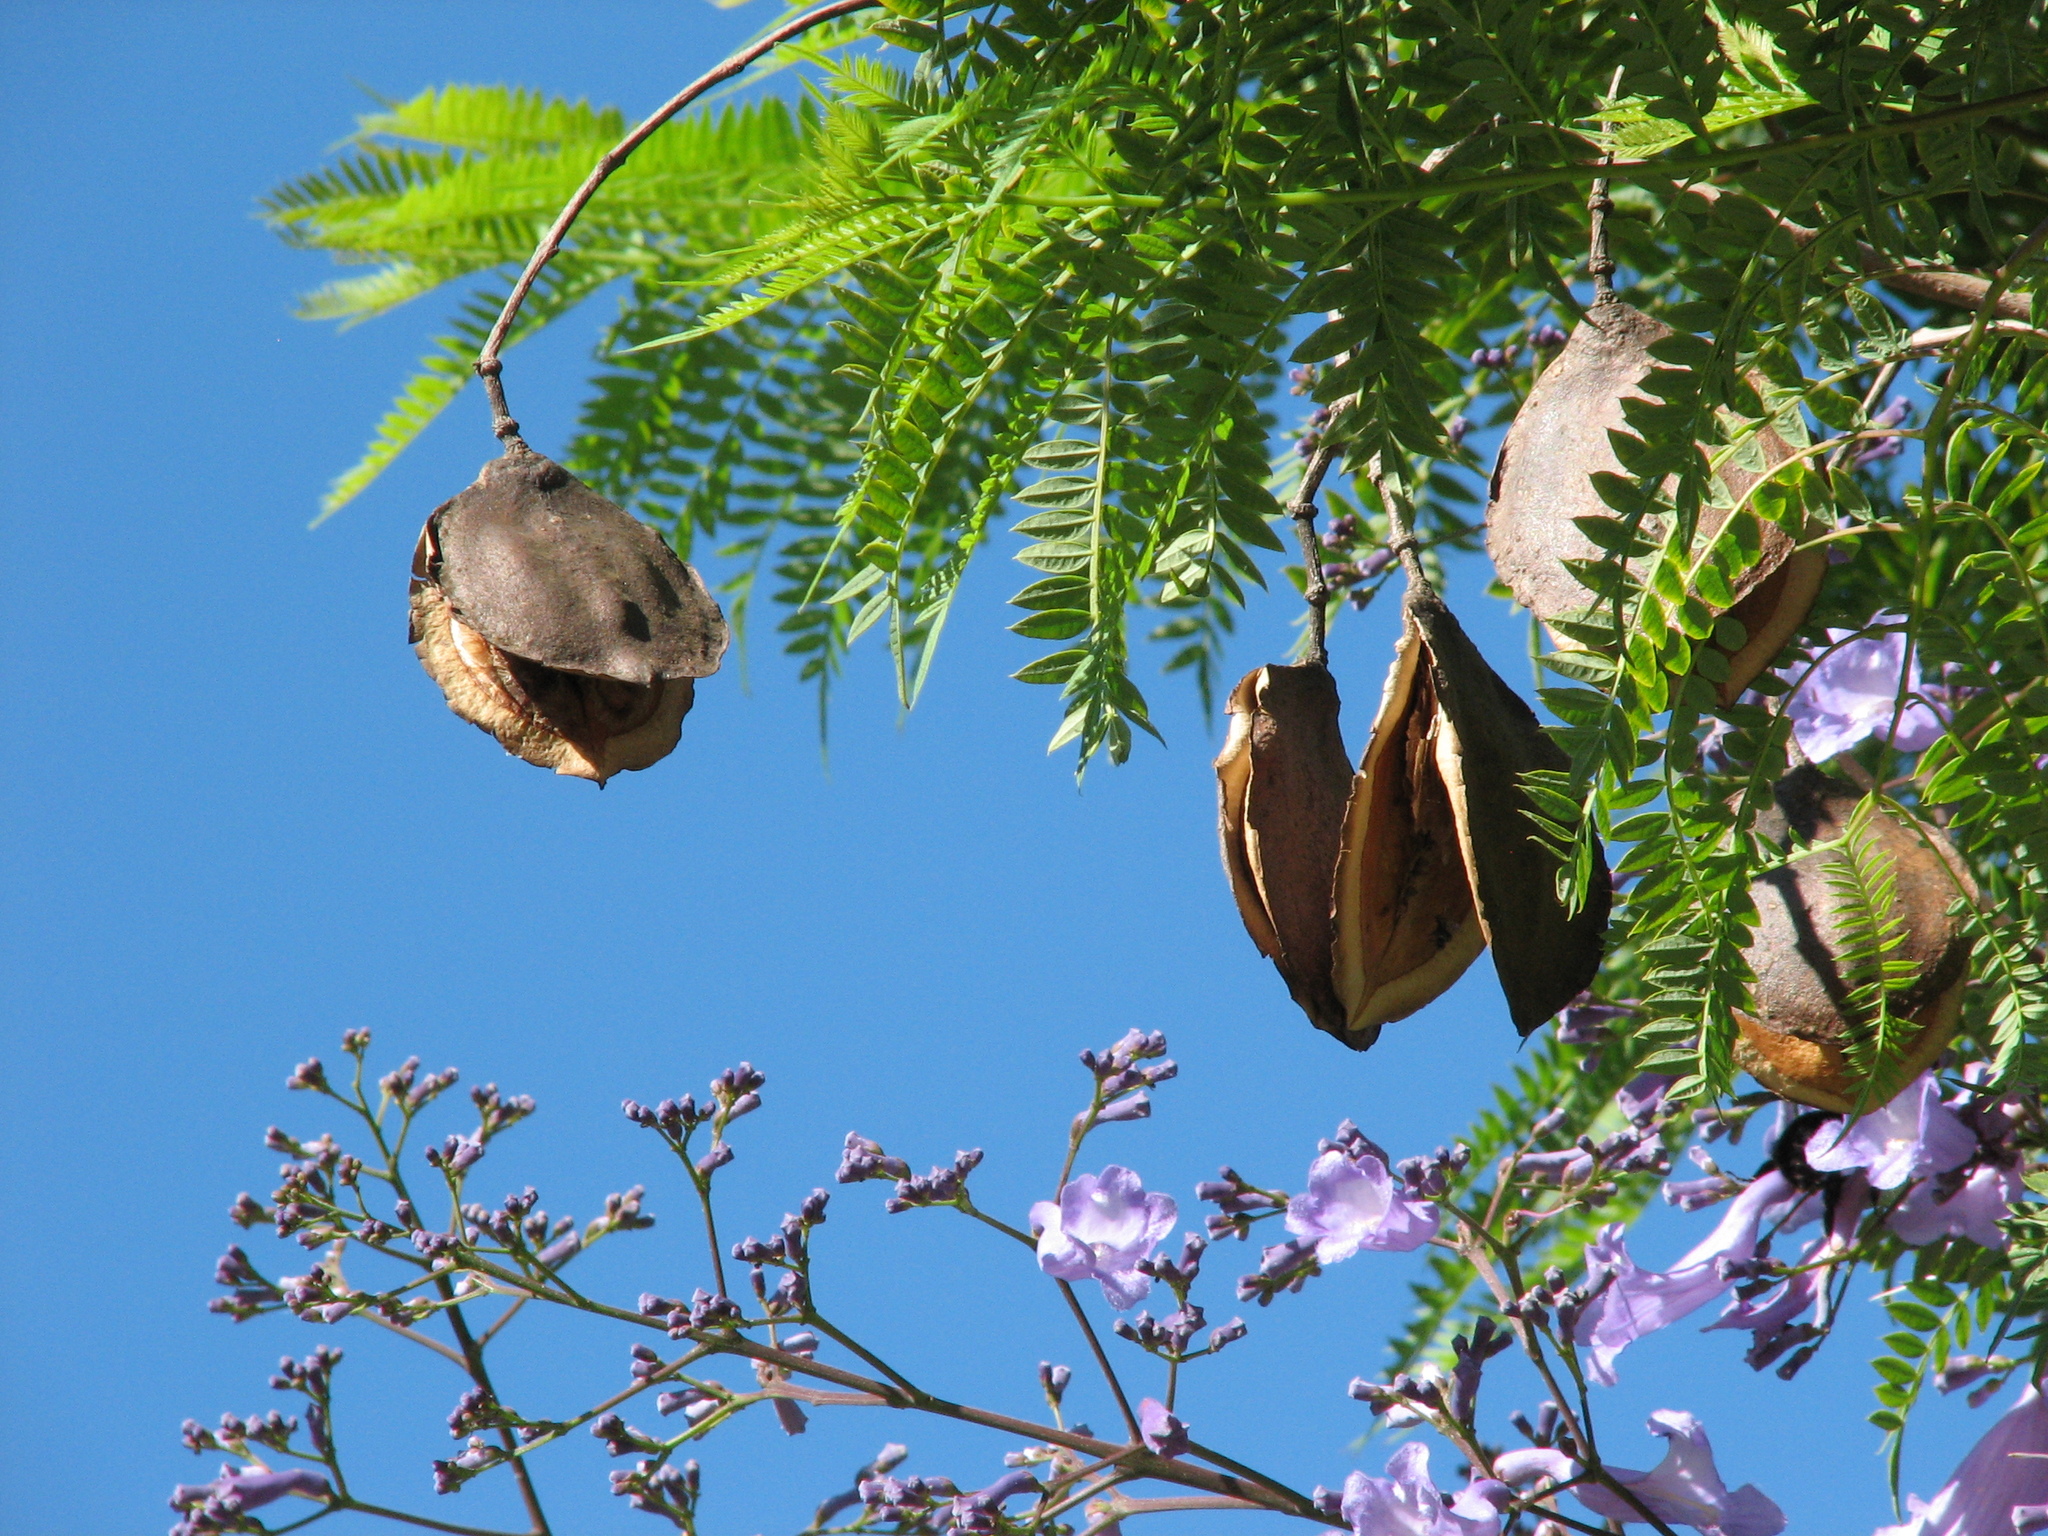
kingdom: Plantae
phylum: Tracheophyta
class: Magnoliopsida
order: Lamiales
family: Bignoniaceae
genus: Jacaranda
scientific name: Jacaranda mimosifolia
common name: Black poui
